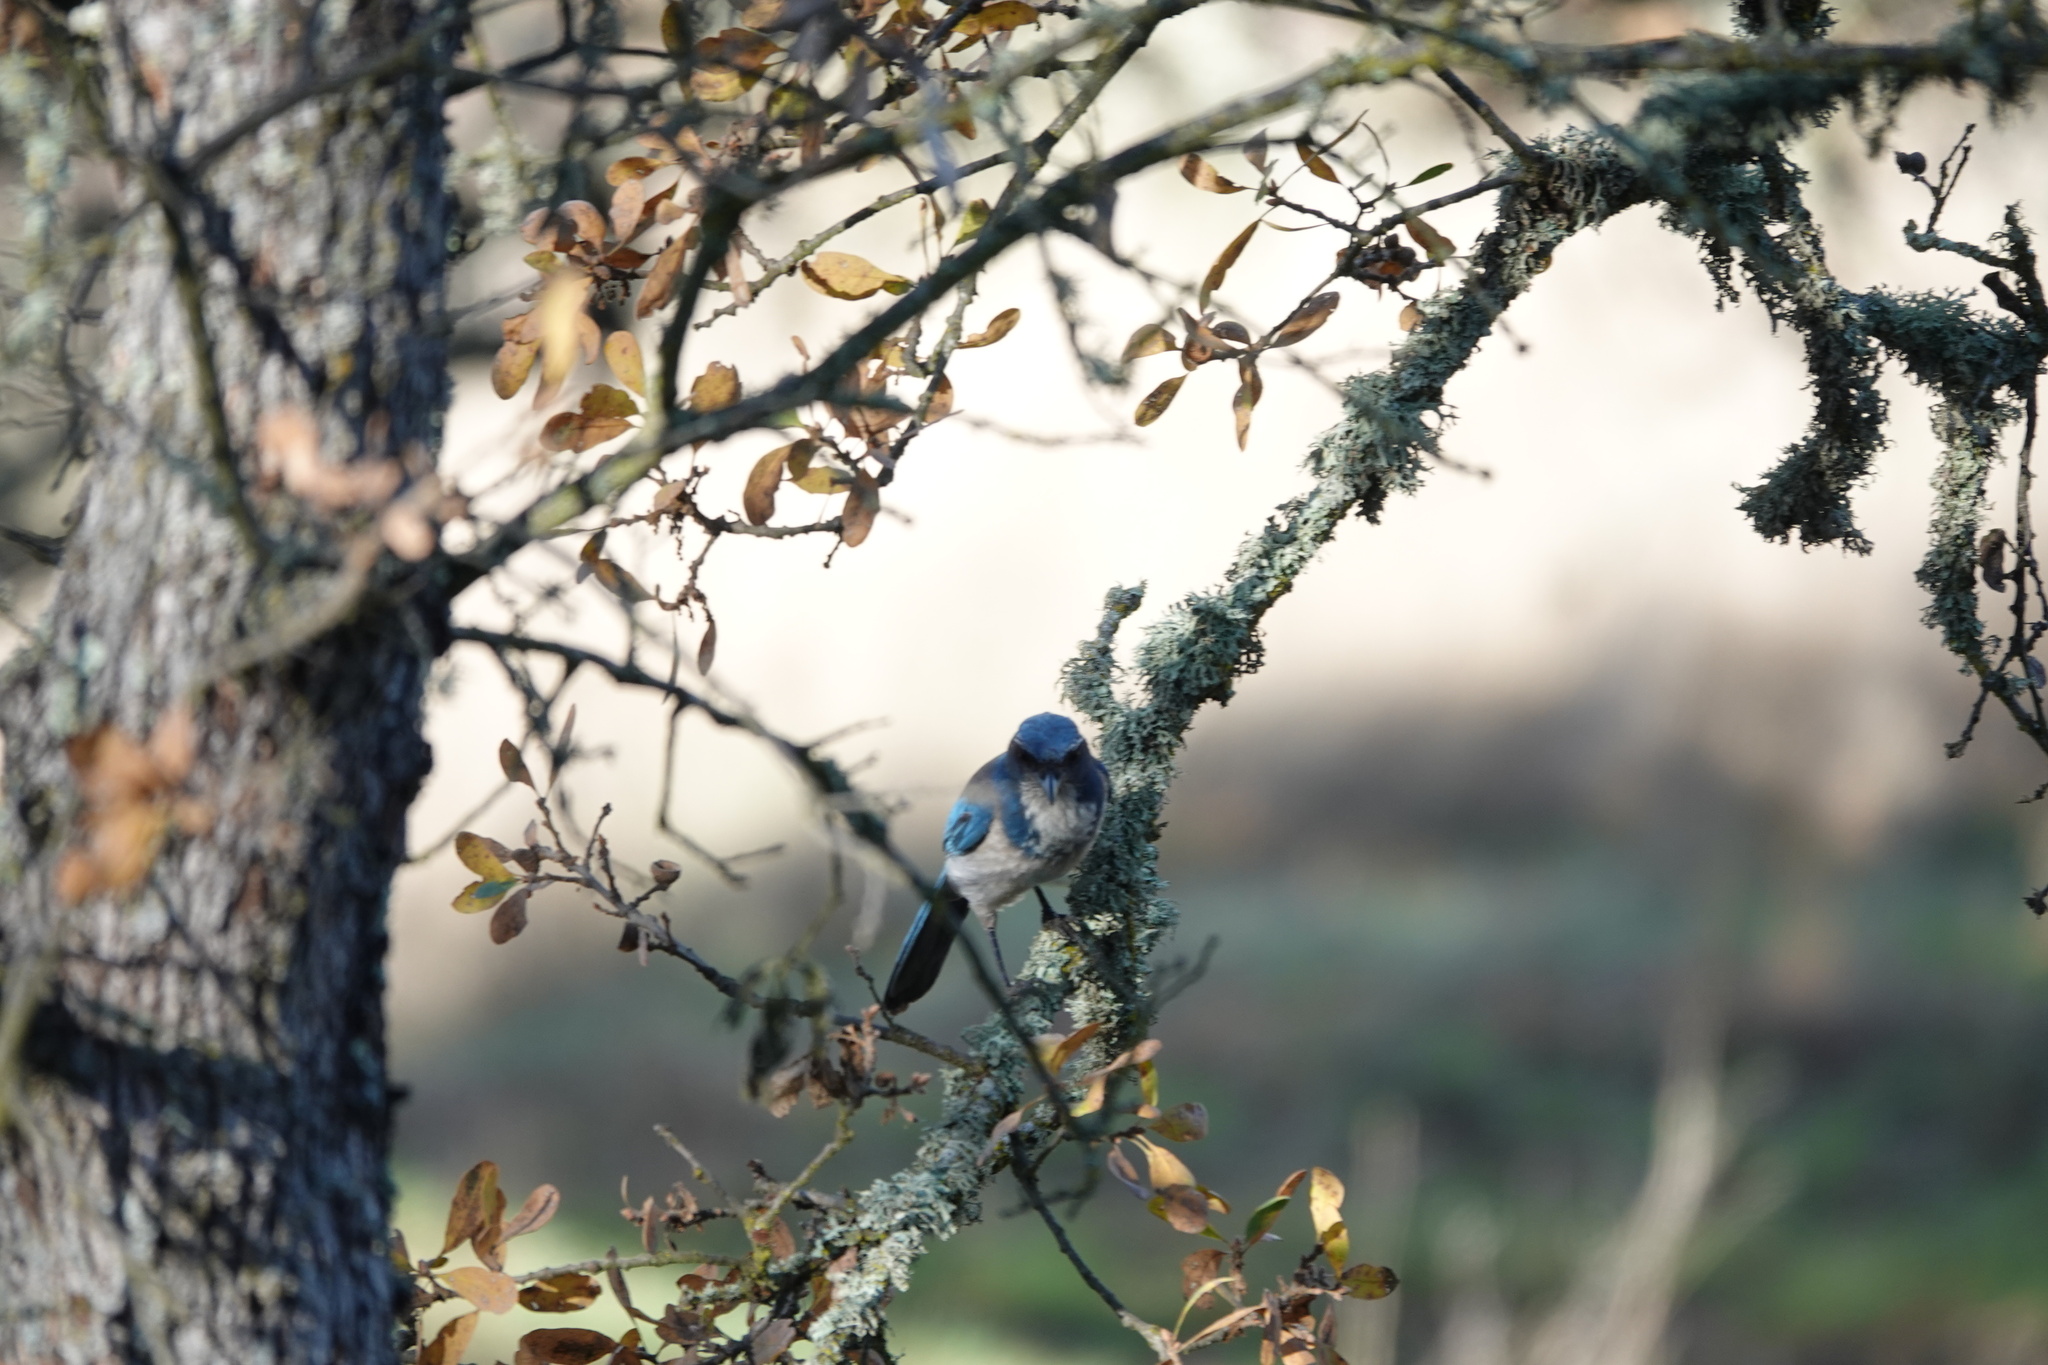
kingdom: Animalia
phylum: Chordata
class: Aves
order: Passeriformes
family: Corvidae
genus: Aphelocoma
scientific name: Aphelocoma californica
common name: California scrub-jay
